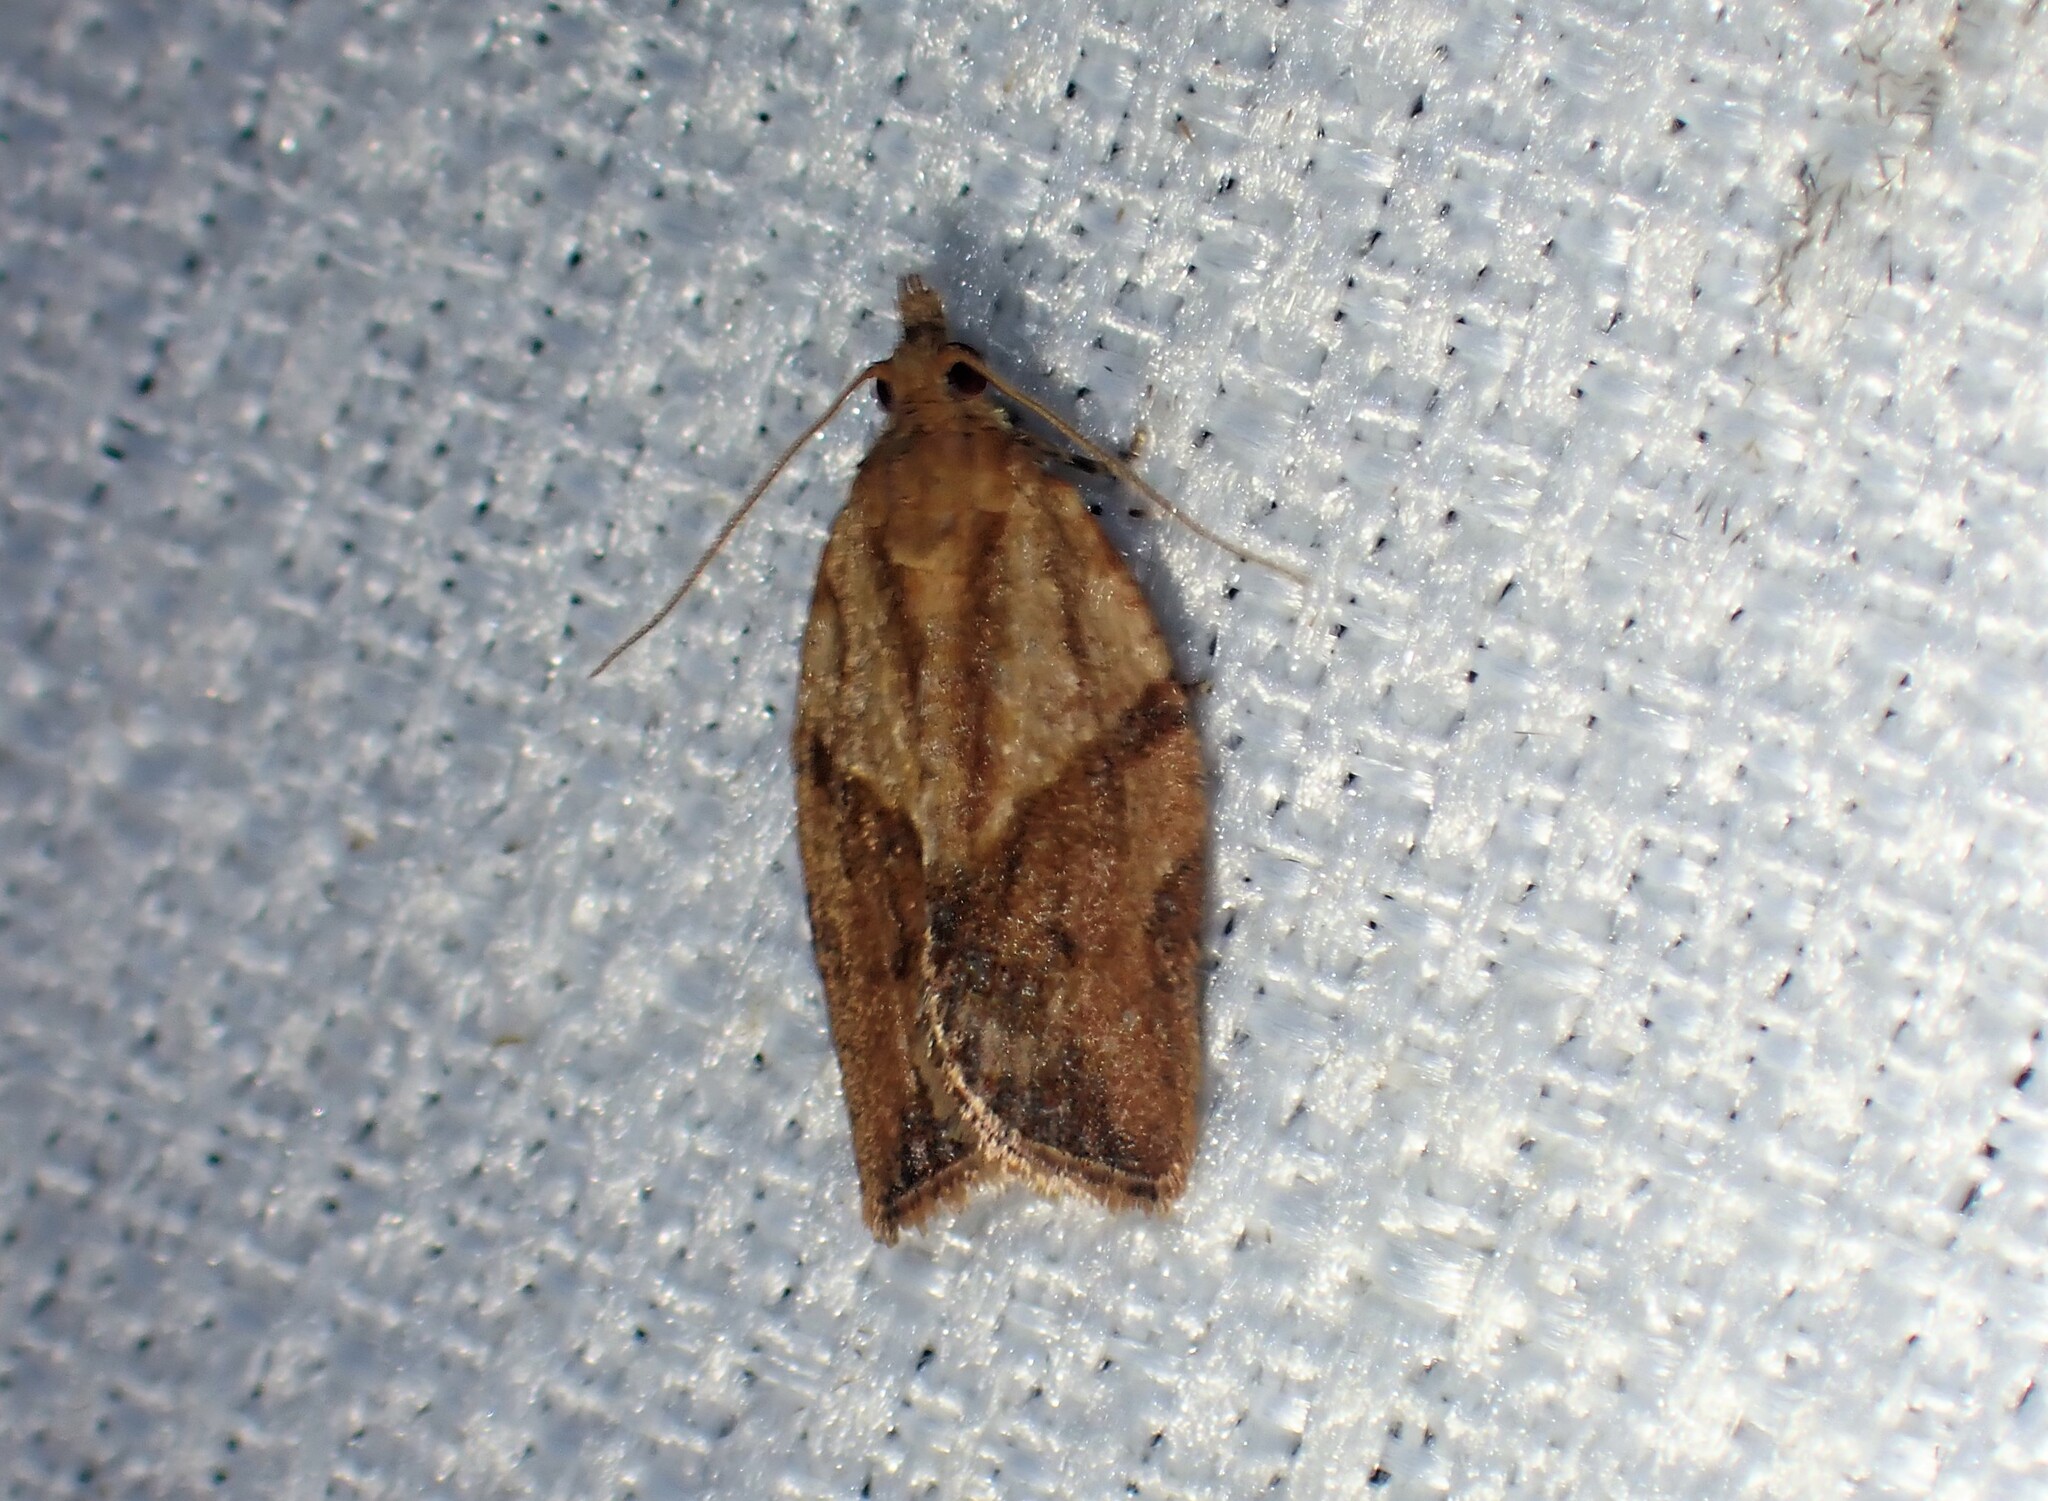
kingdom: Animalia
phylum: Arthropoda
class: Insecta
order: Lepidoptera
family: Tortricidae
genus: Epiphyas
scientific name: Epiphyas postvittana
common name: Light brown apple moth
